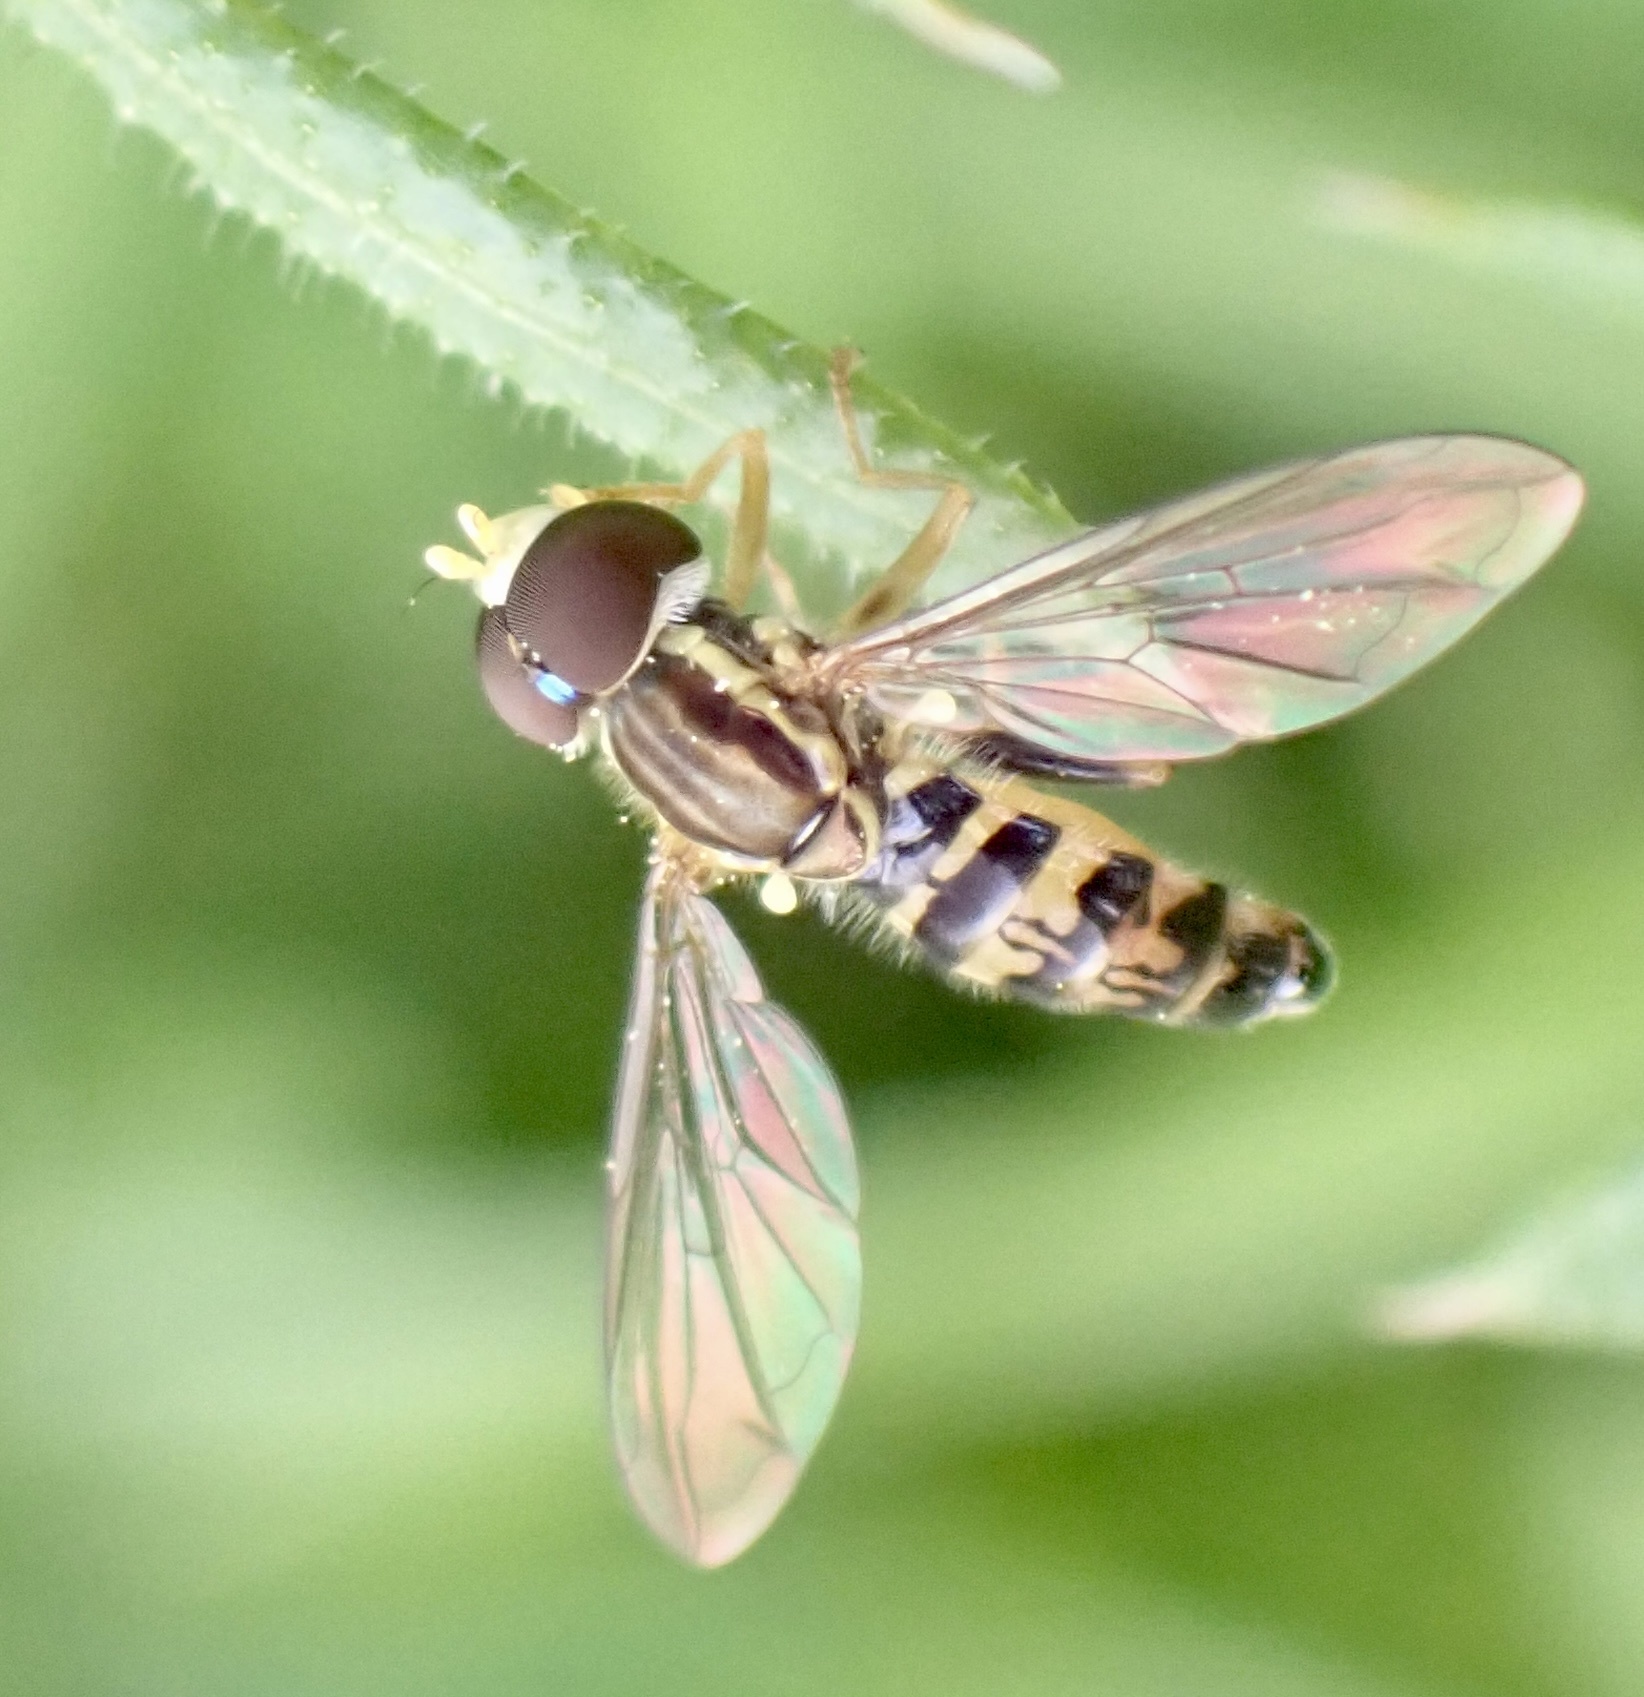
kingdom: Animalia
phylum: Arthropoda
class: Insecta
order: Diptera
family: Syrphidae
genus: Toxomerus
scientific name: Toxomerus geminatus
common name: Eastern calligrapher
